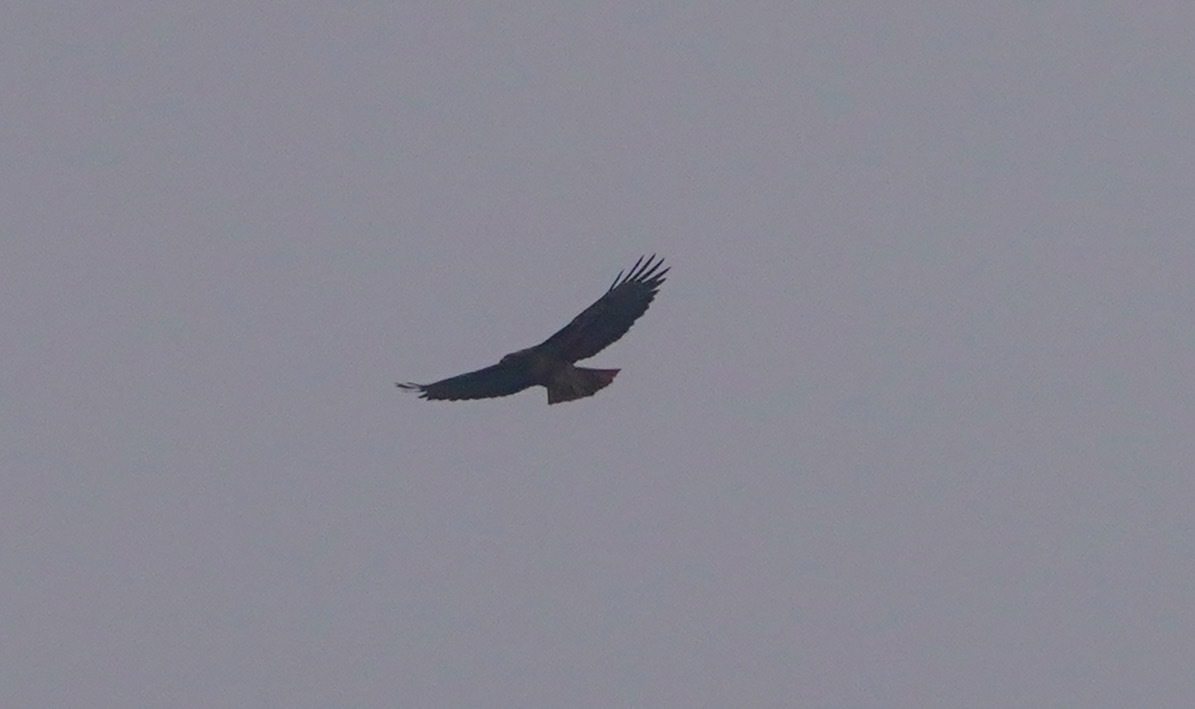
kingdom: Animalia
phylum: Chordata
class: Aves
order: Accipitriformes
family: Accipitridae
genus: Buteo
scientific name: Buteo jamaicensis
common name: Red-tailed hawk
